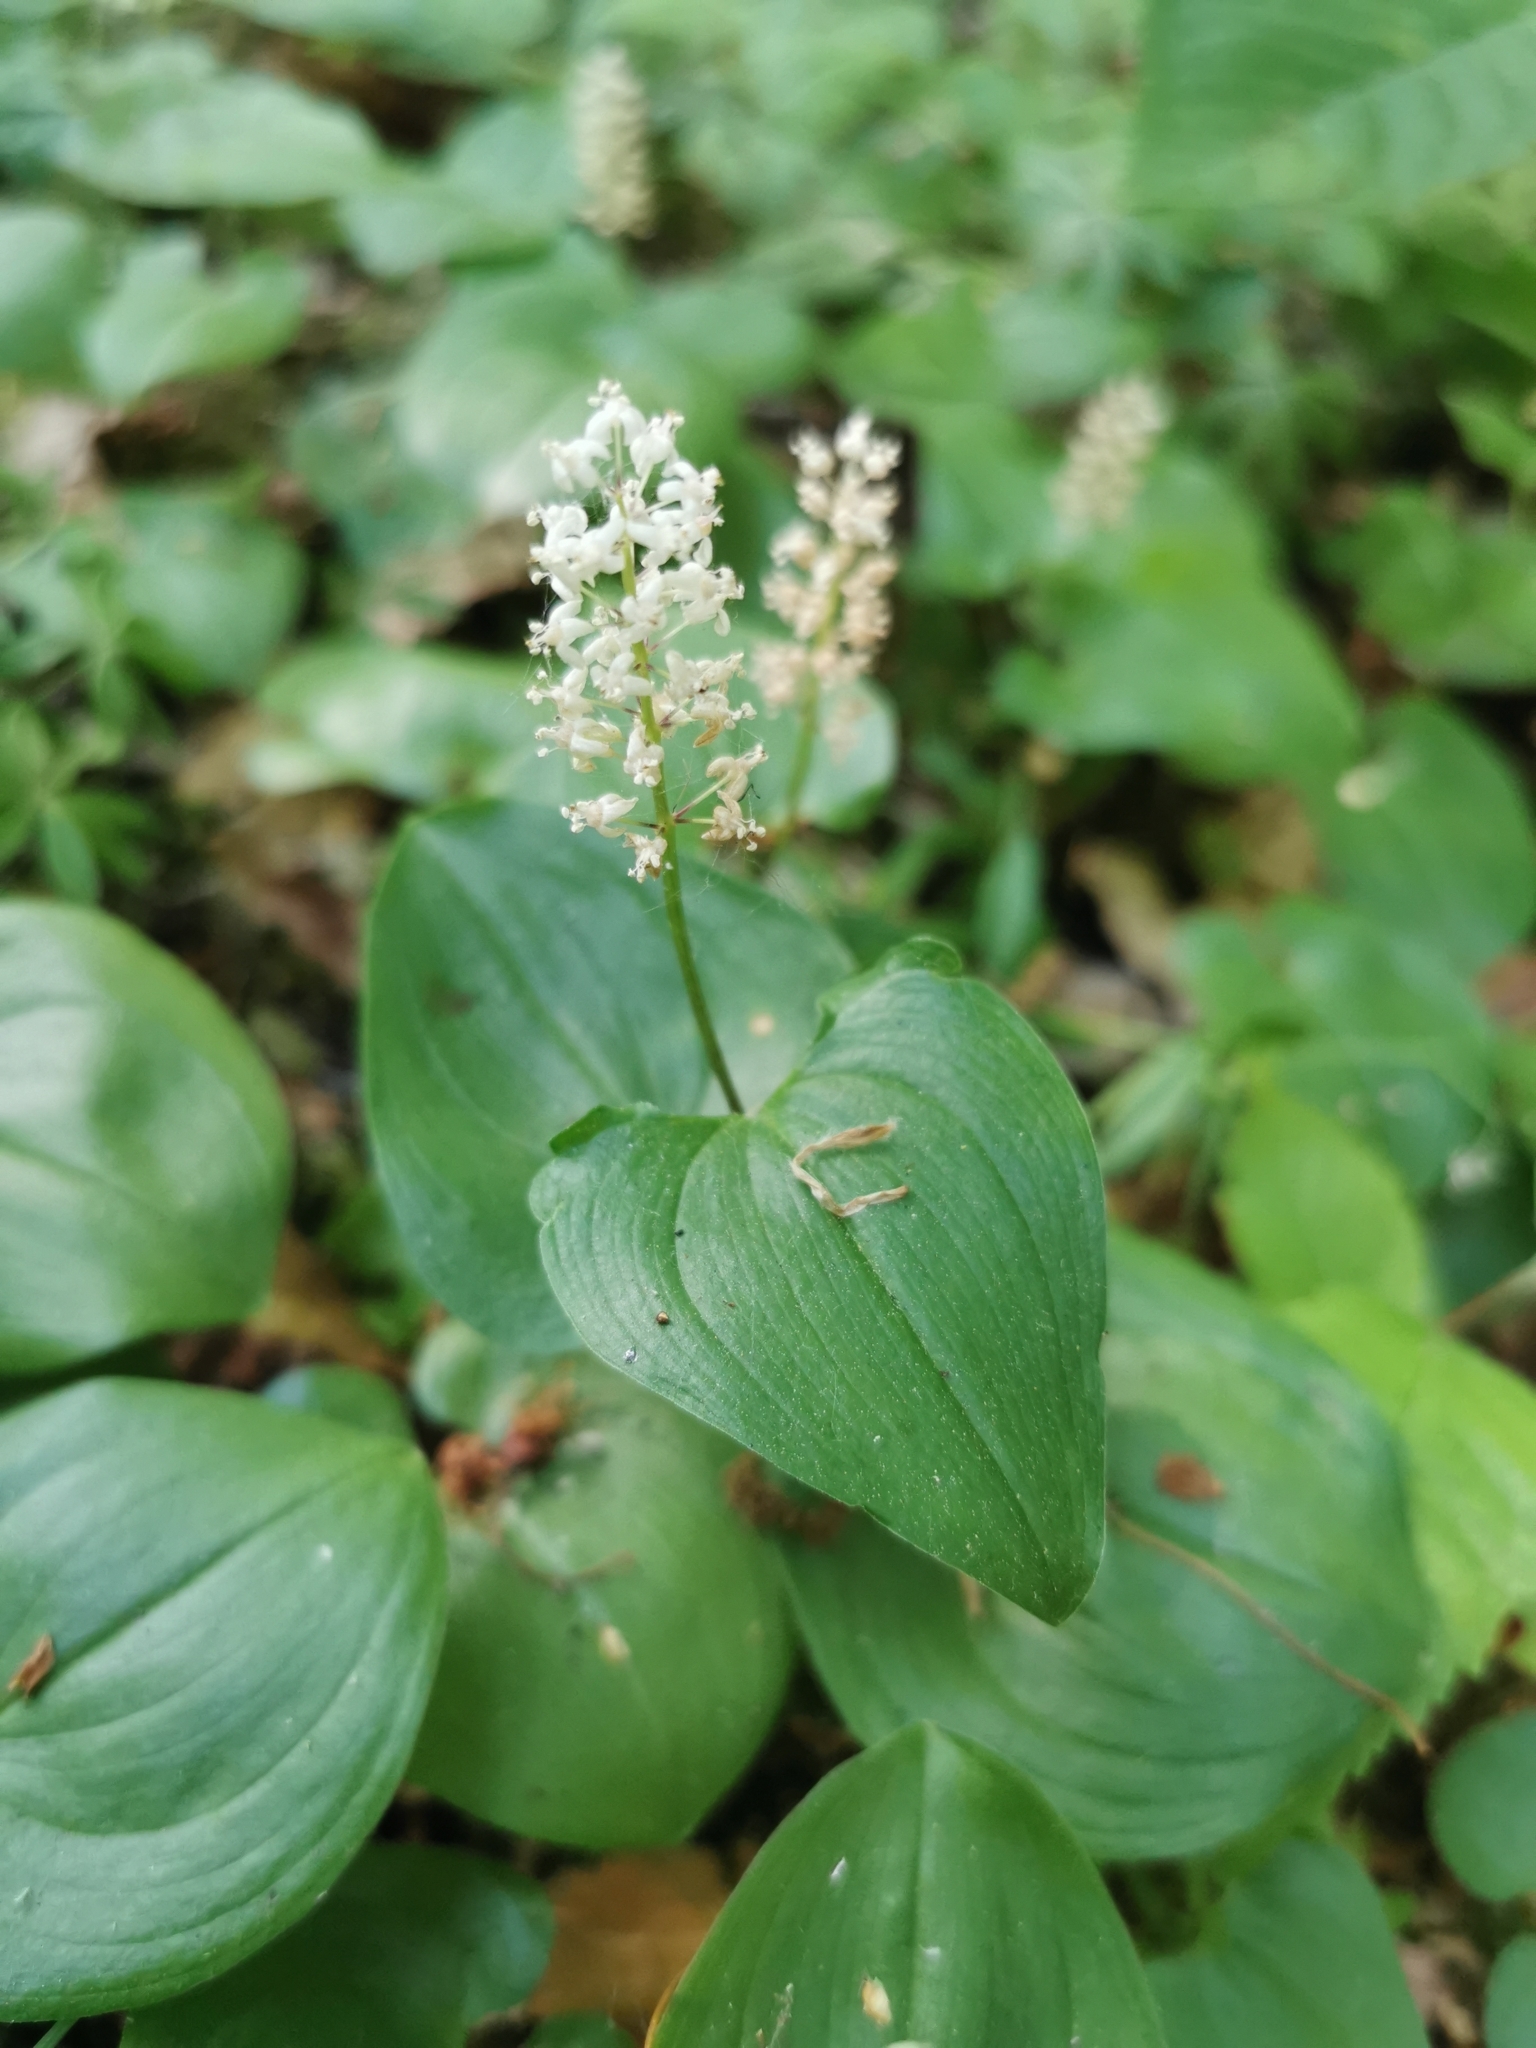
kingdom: Plantae
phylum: Tracheophyta
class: Liliopsida
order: Asparagales
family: Asparagaceae
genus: Maianthemum
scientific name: Maianthemum bifolium
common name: May lily
